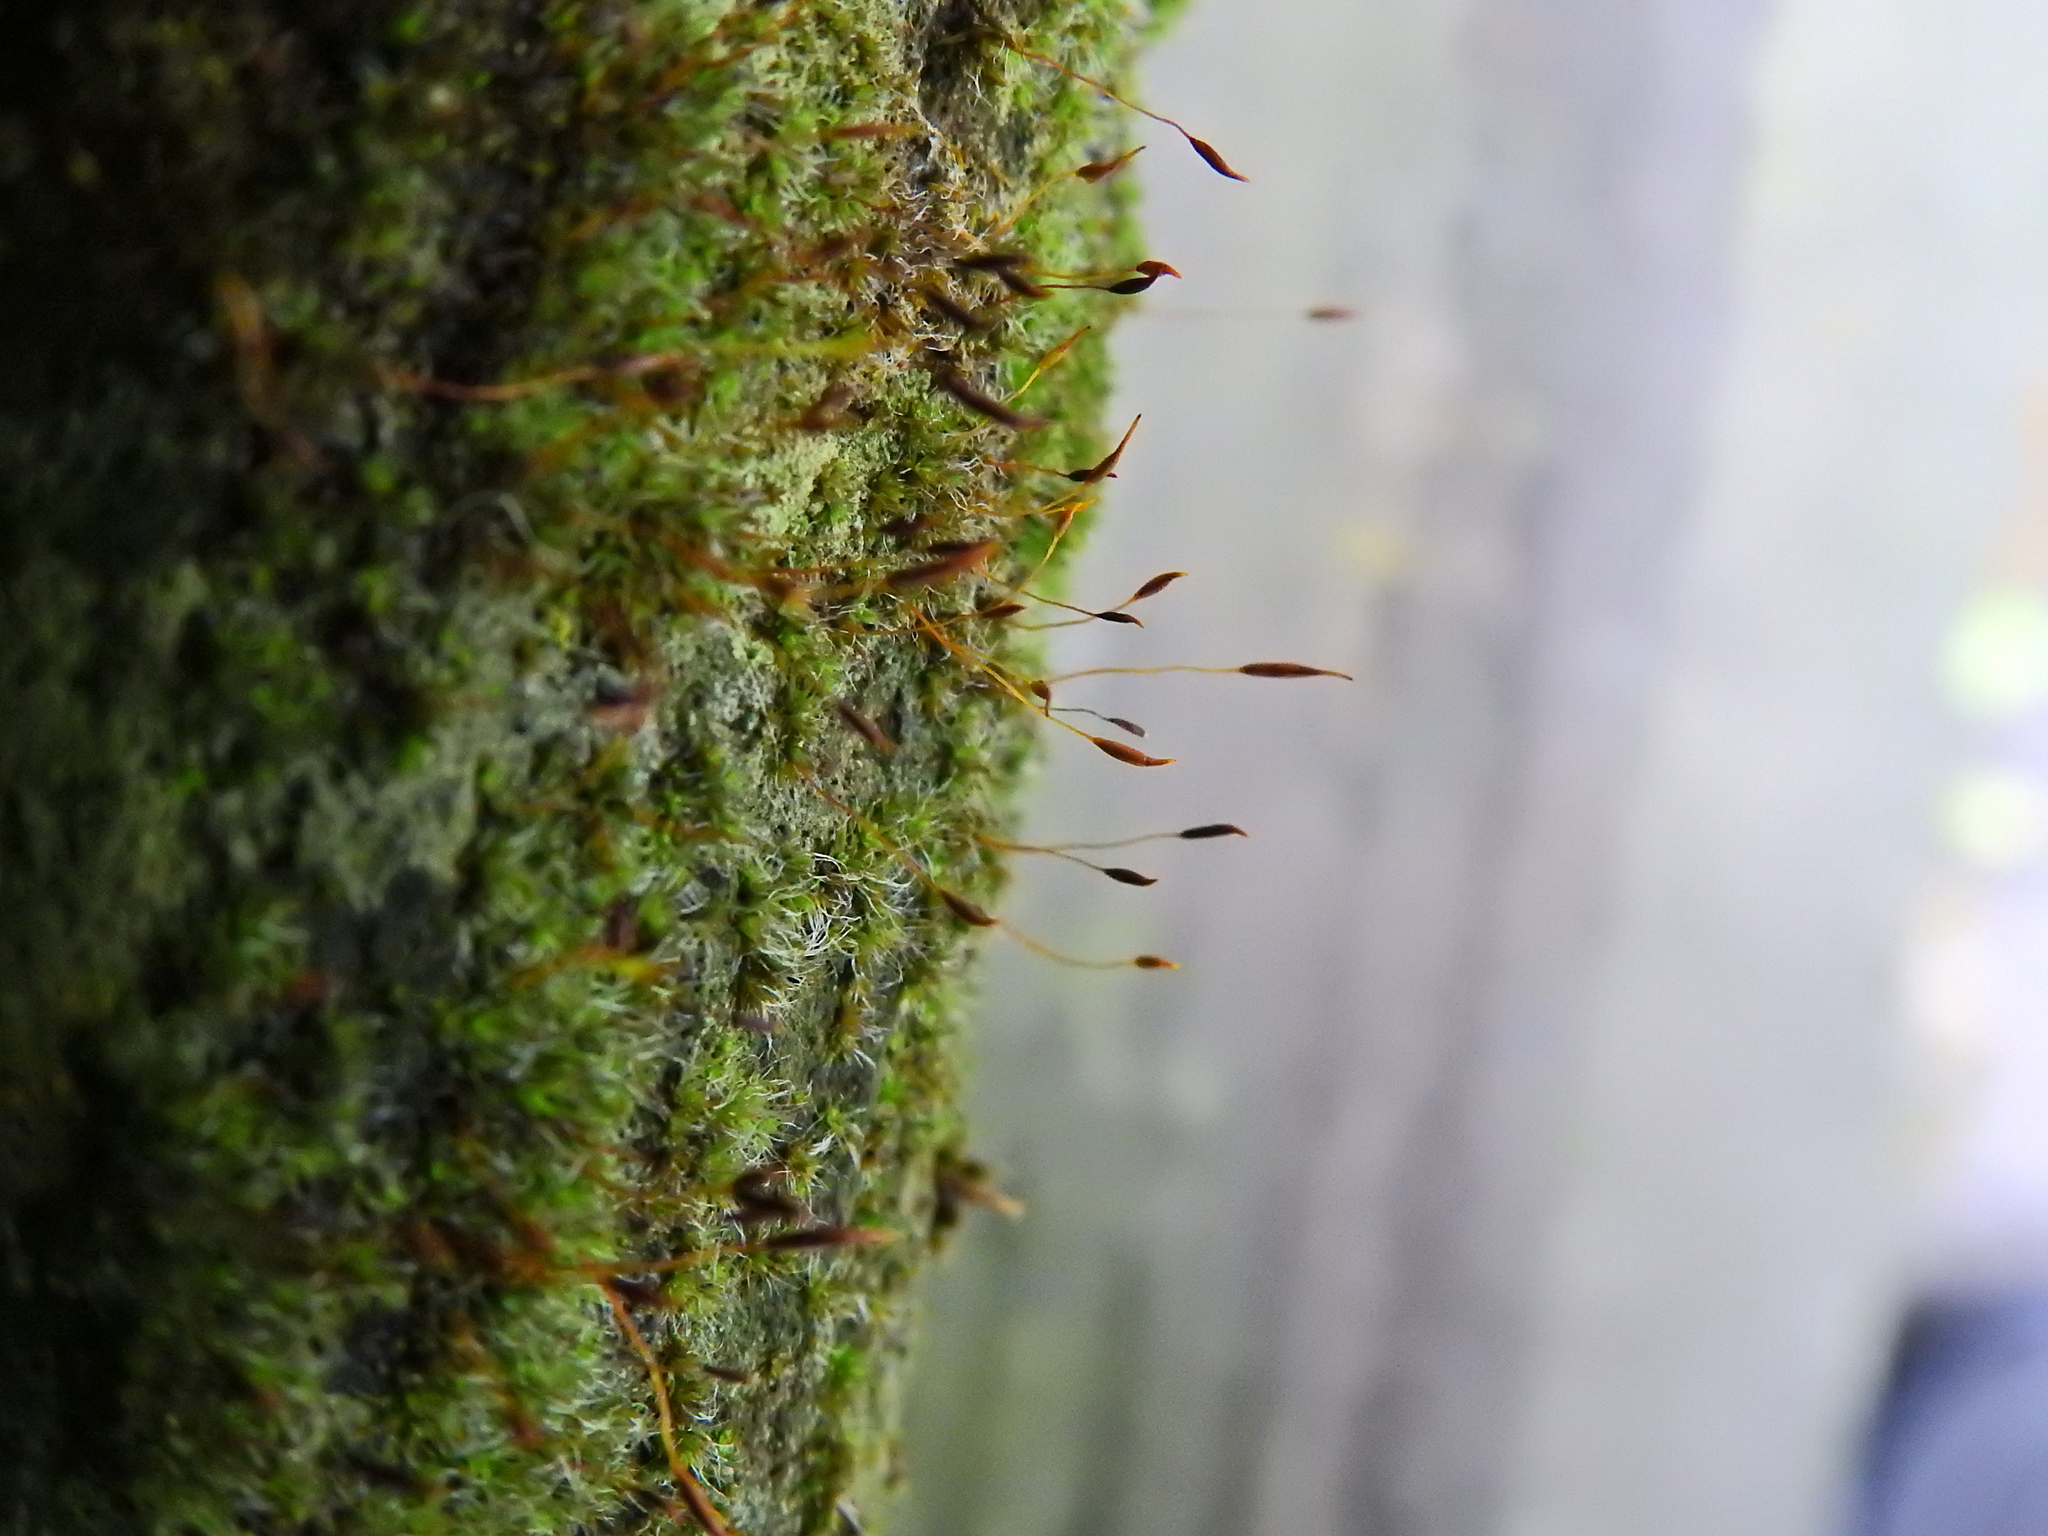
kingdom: Plantae
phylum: Bryophyta
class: Bryopsida
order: Pottiales
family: Pottiaceae
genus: Tortula
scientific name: Tortula muralis
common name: Wall screw-moss
